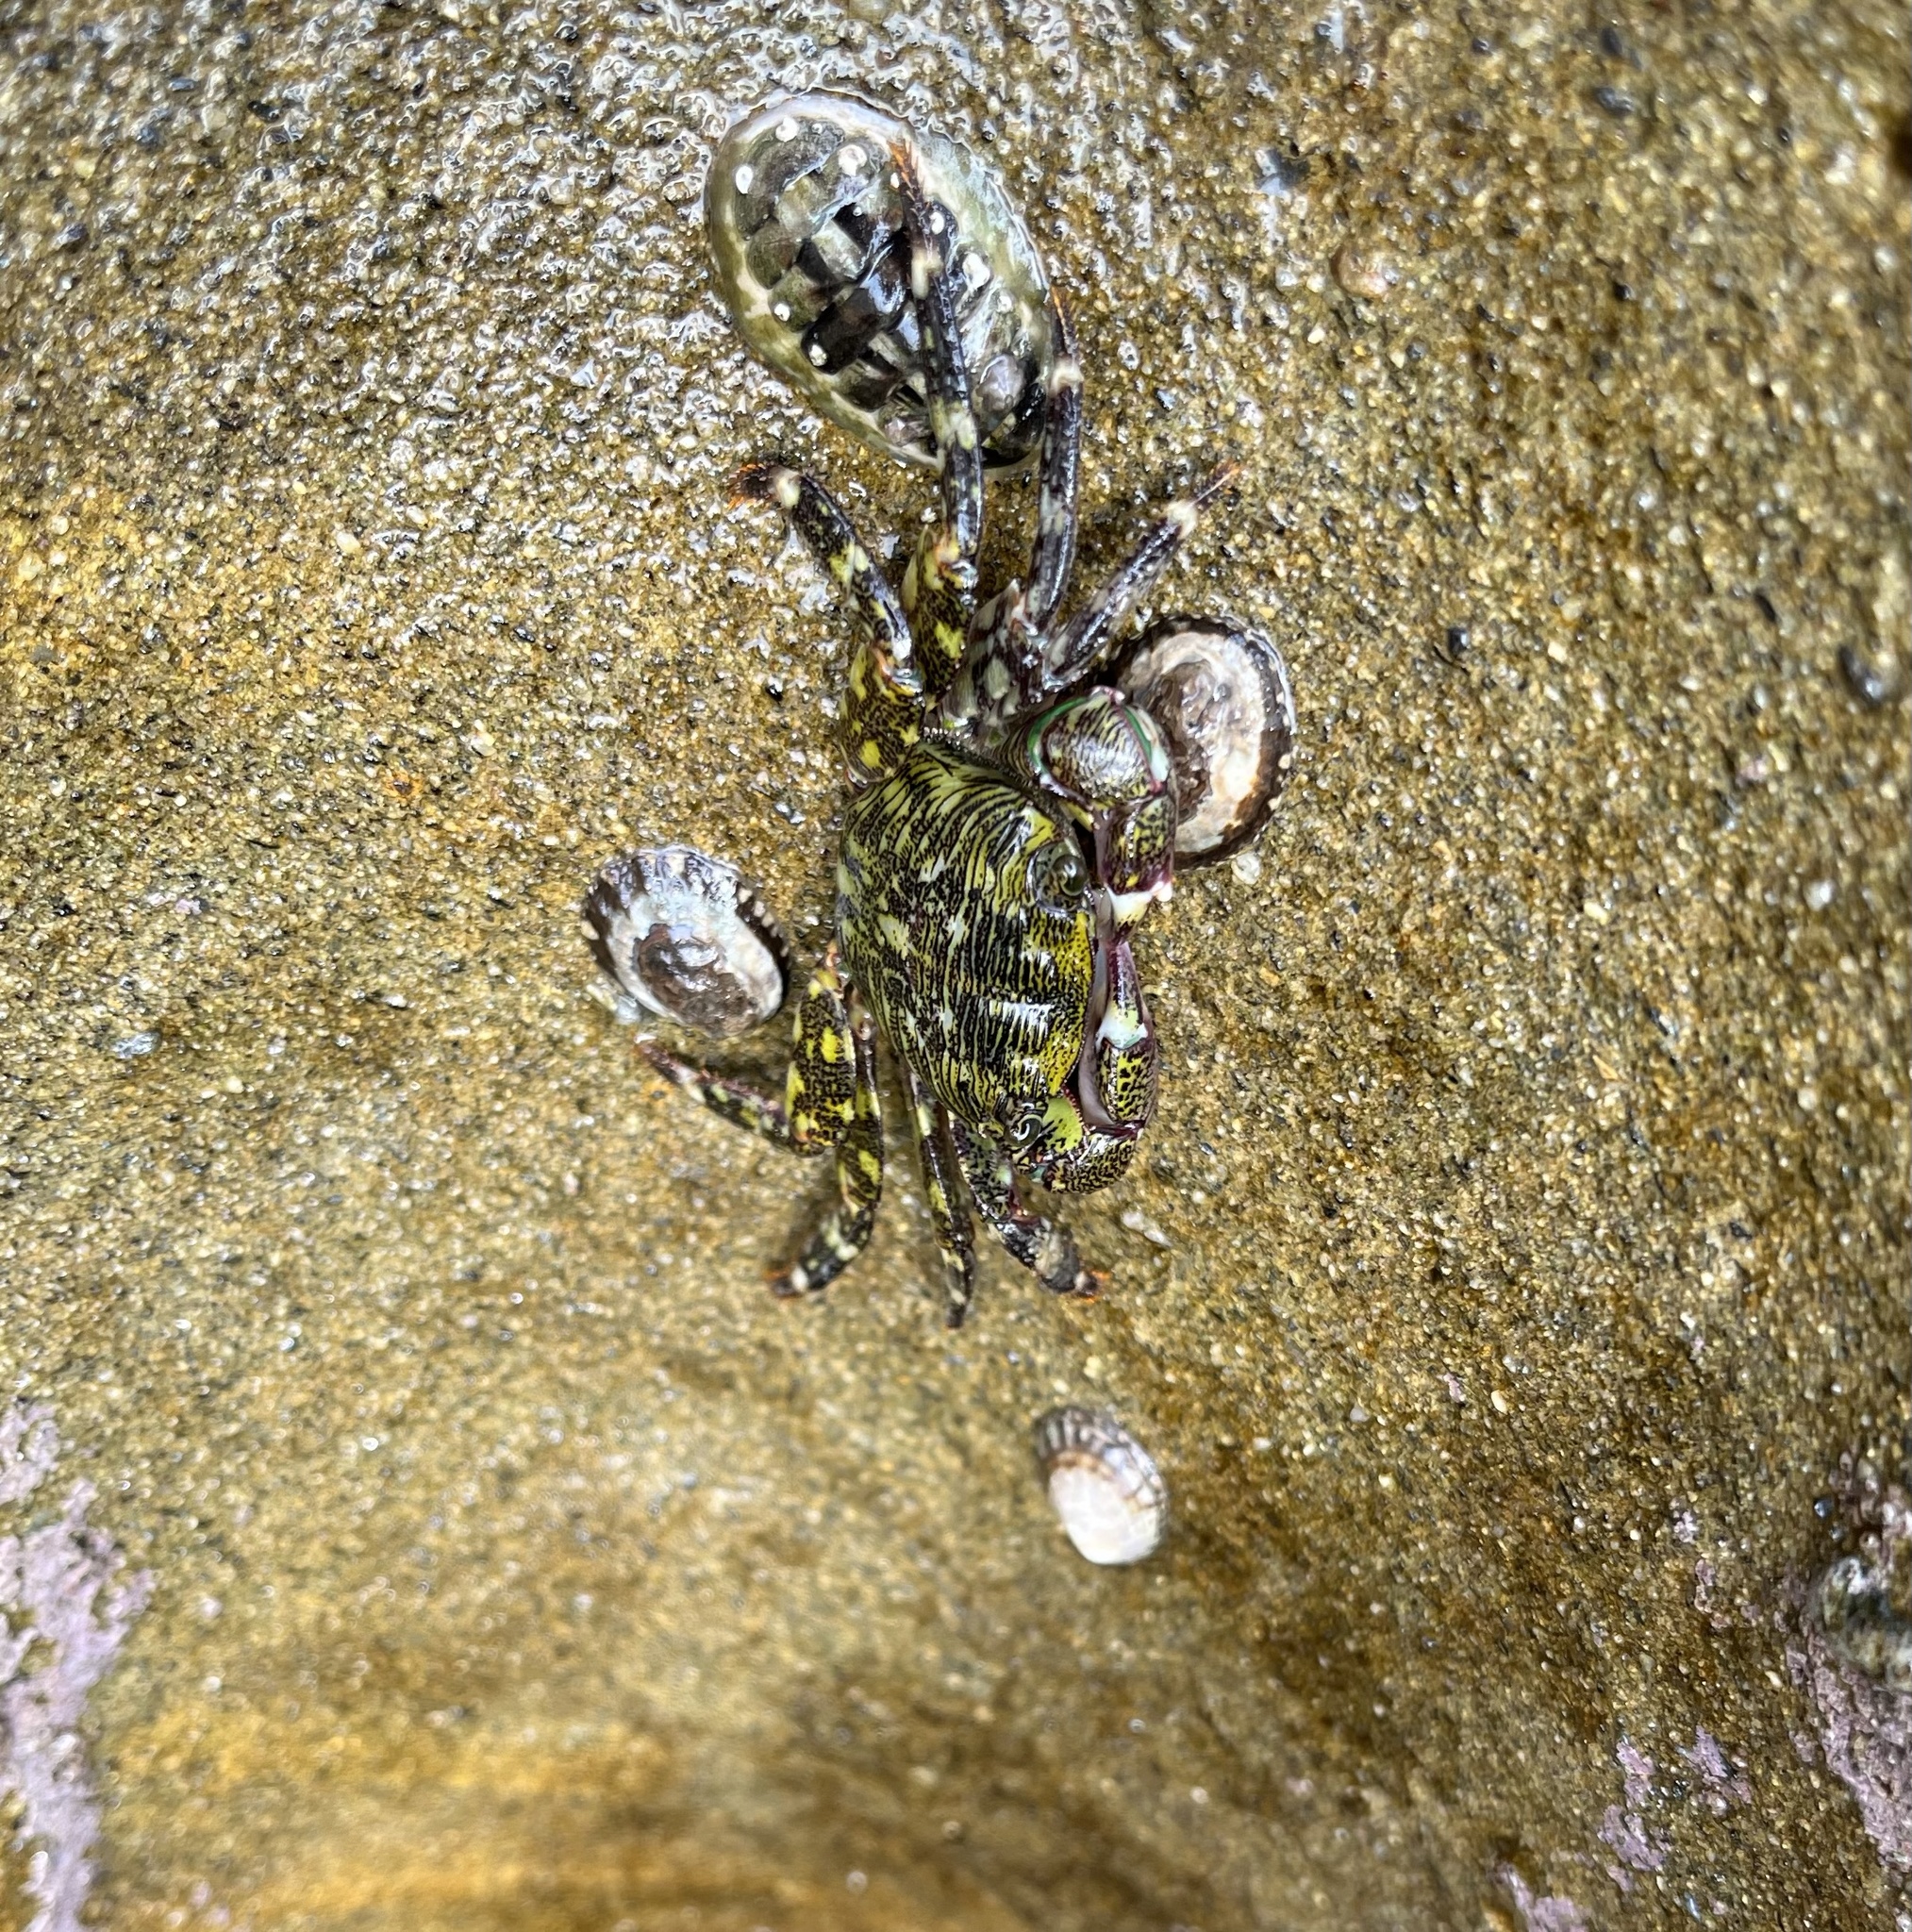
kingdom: Animalia
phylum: Arthropoda
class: Malacostraca
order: Decapoda
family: Grapsidae
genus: Pachygrapsus
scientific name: Pachygrapsus crassipes
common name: Striped shore crab
